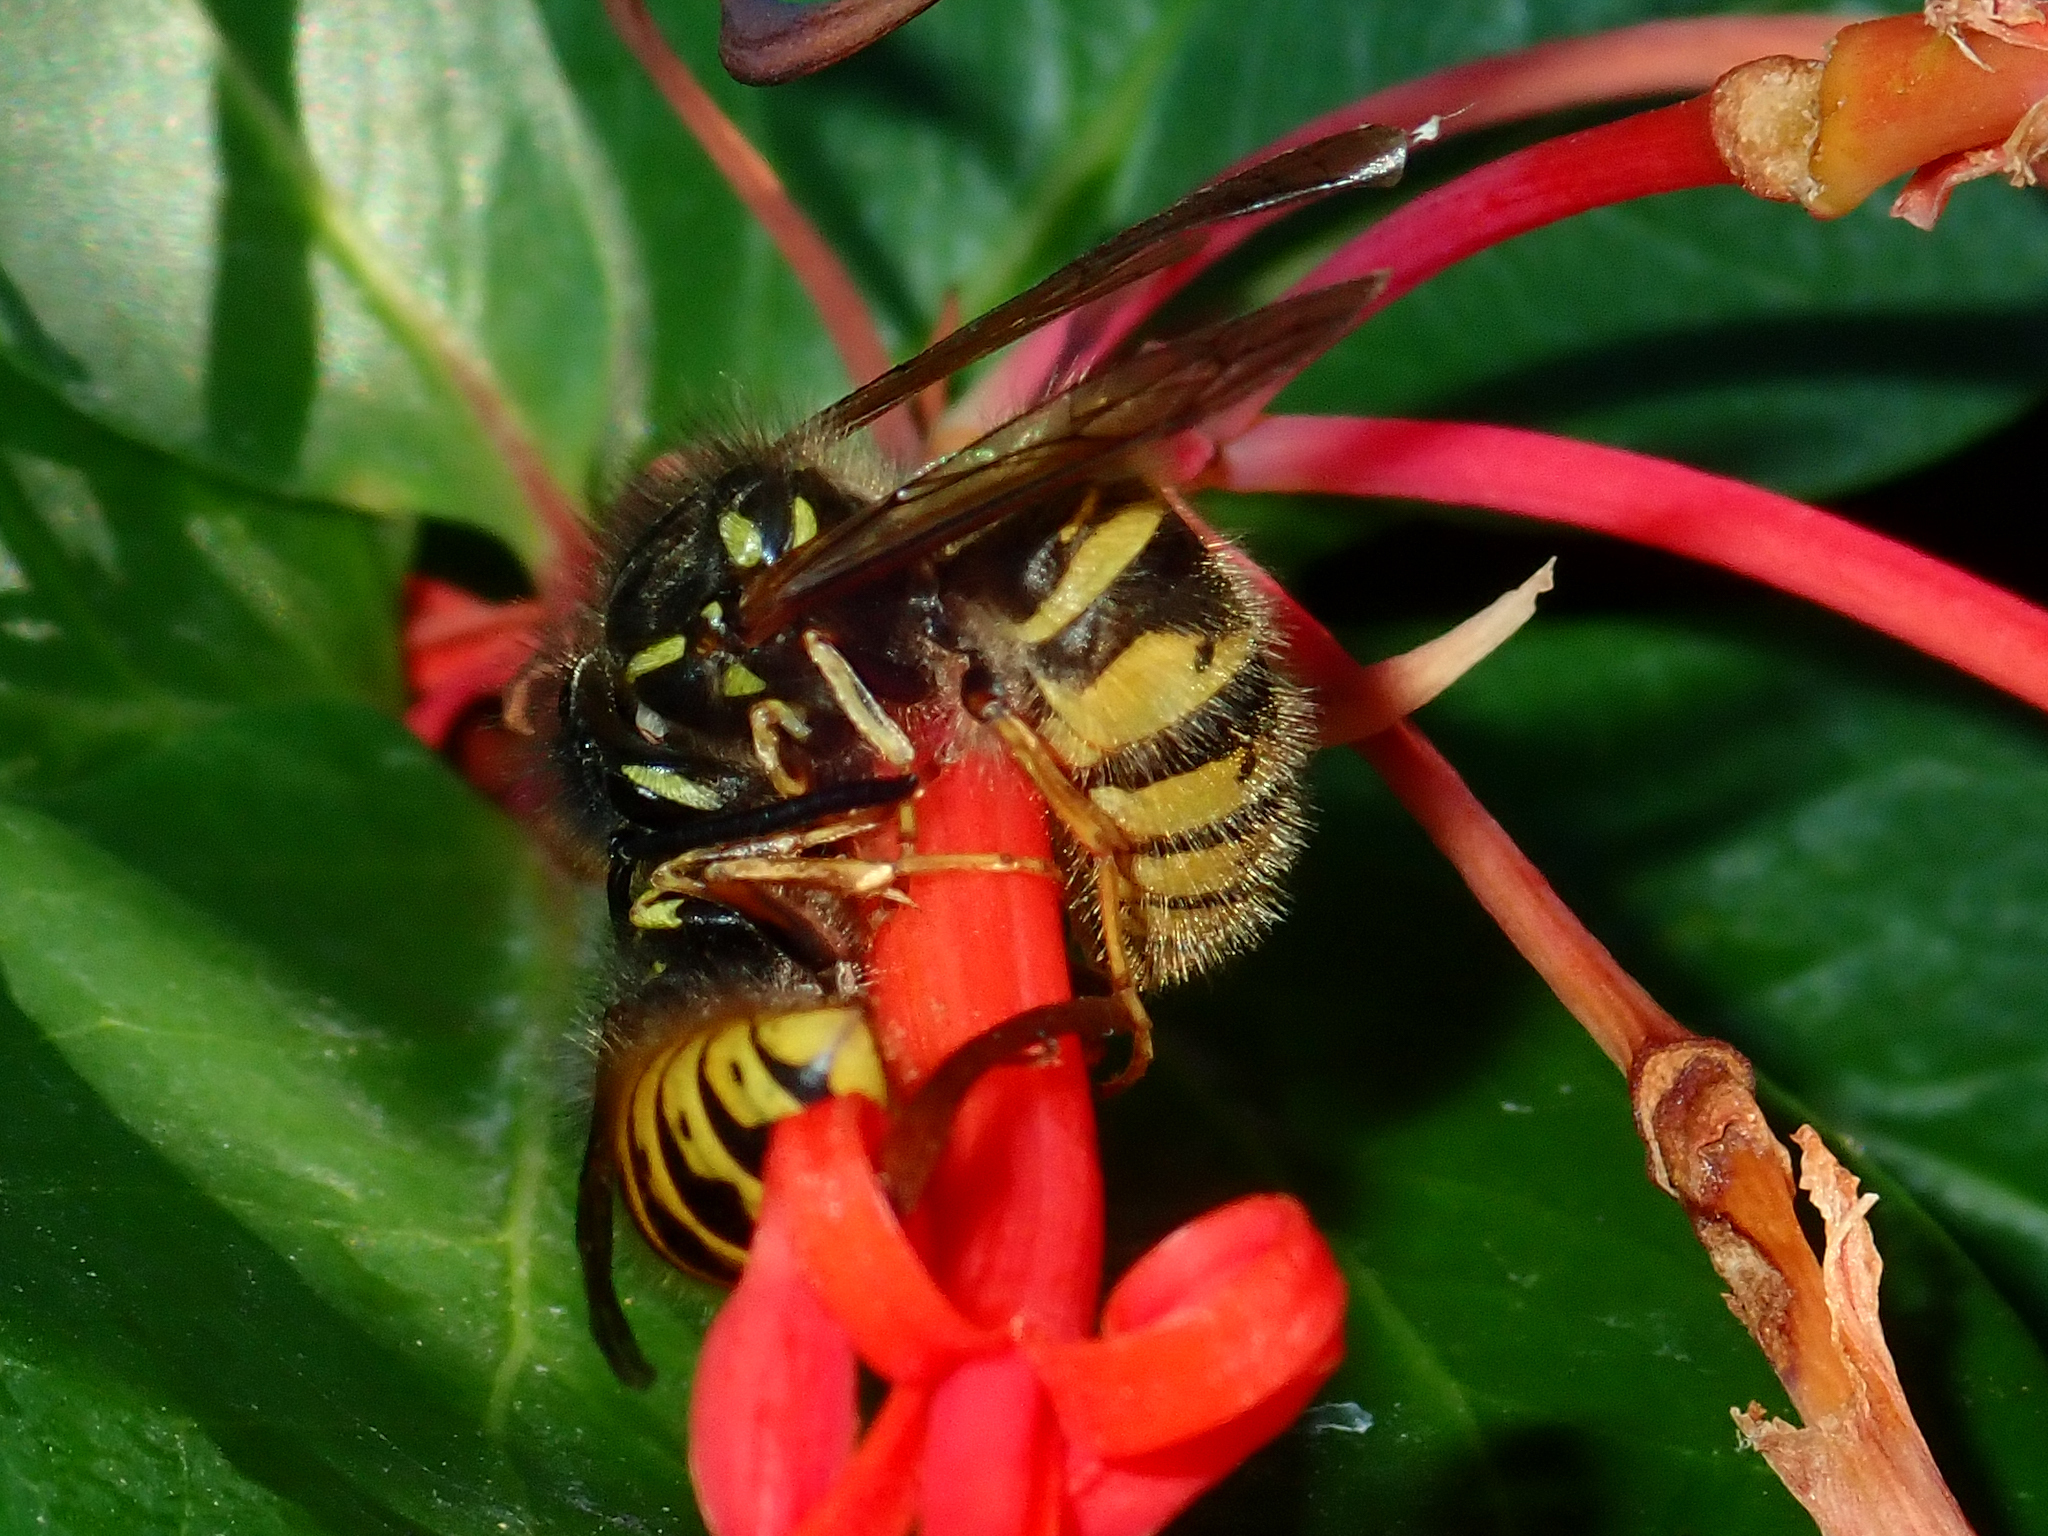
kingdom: Animalia
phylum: Arthropoda
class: Insecta
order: Hymenoptera
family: Vespidae
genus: Vespula
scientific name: Vespula vulgaris
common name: Common wasp
